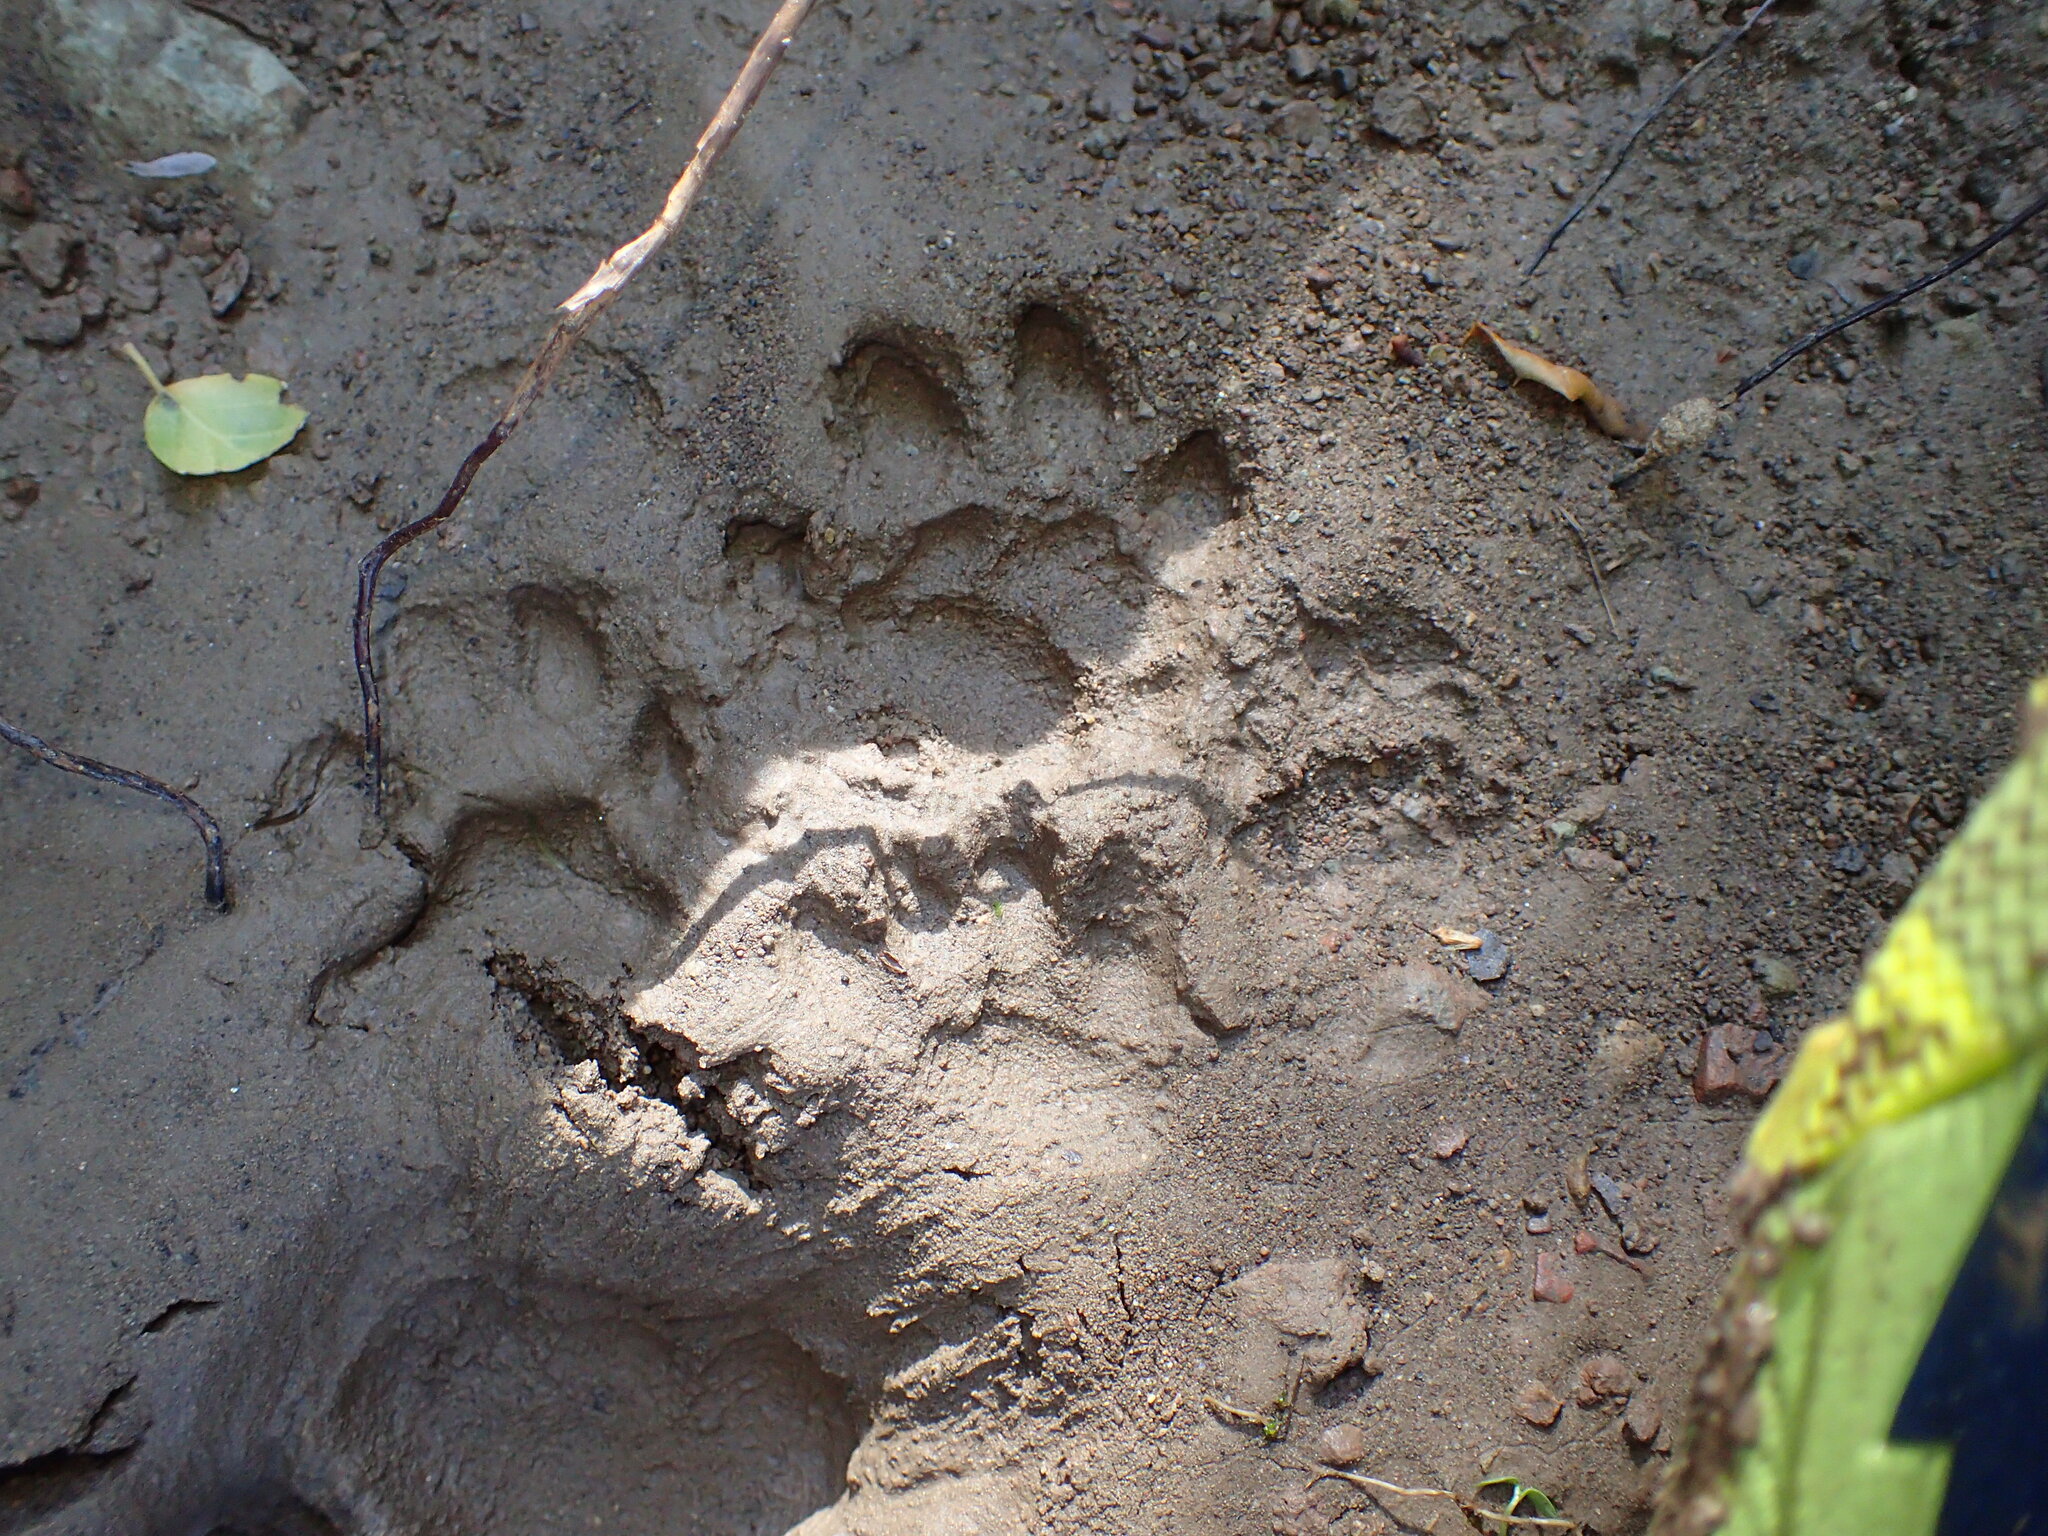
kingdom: Animalia
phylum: Chordata
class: Mammalia
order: Carnivora
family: Felidae
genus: Lynx
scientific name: Lynx rufus
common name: Bobcat
